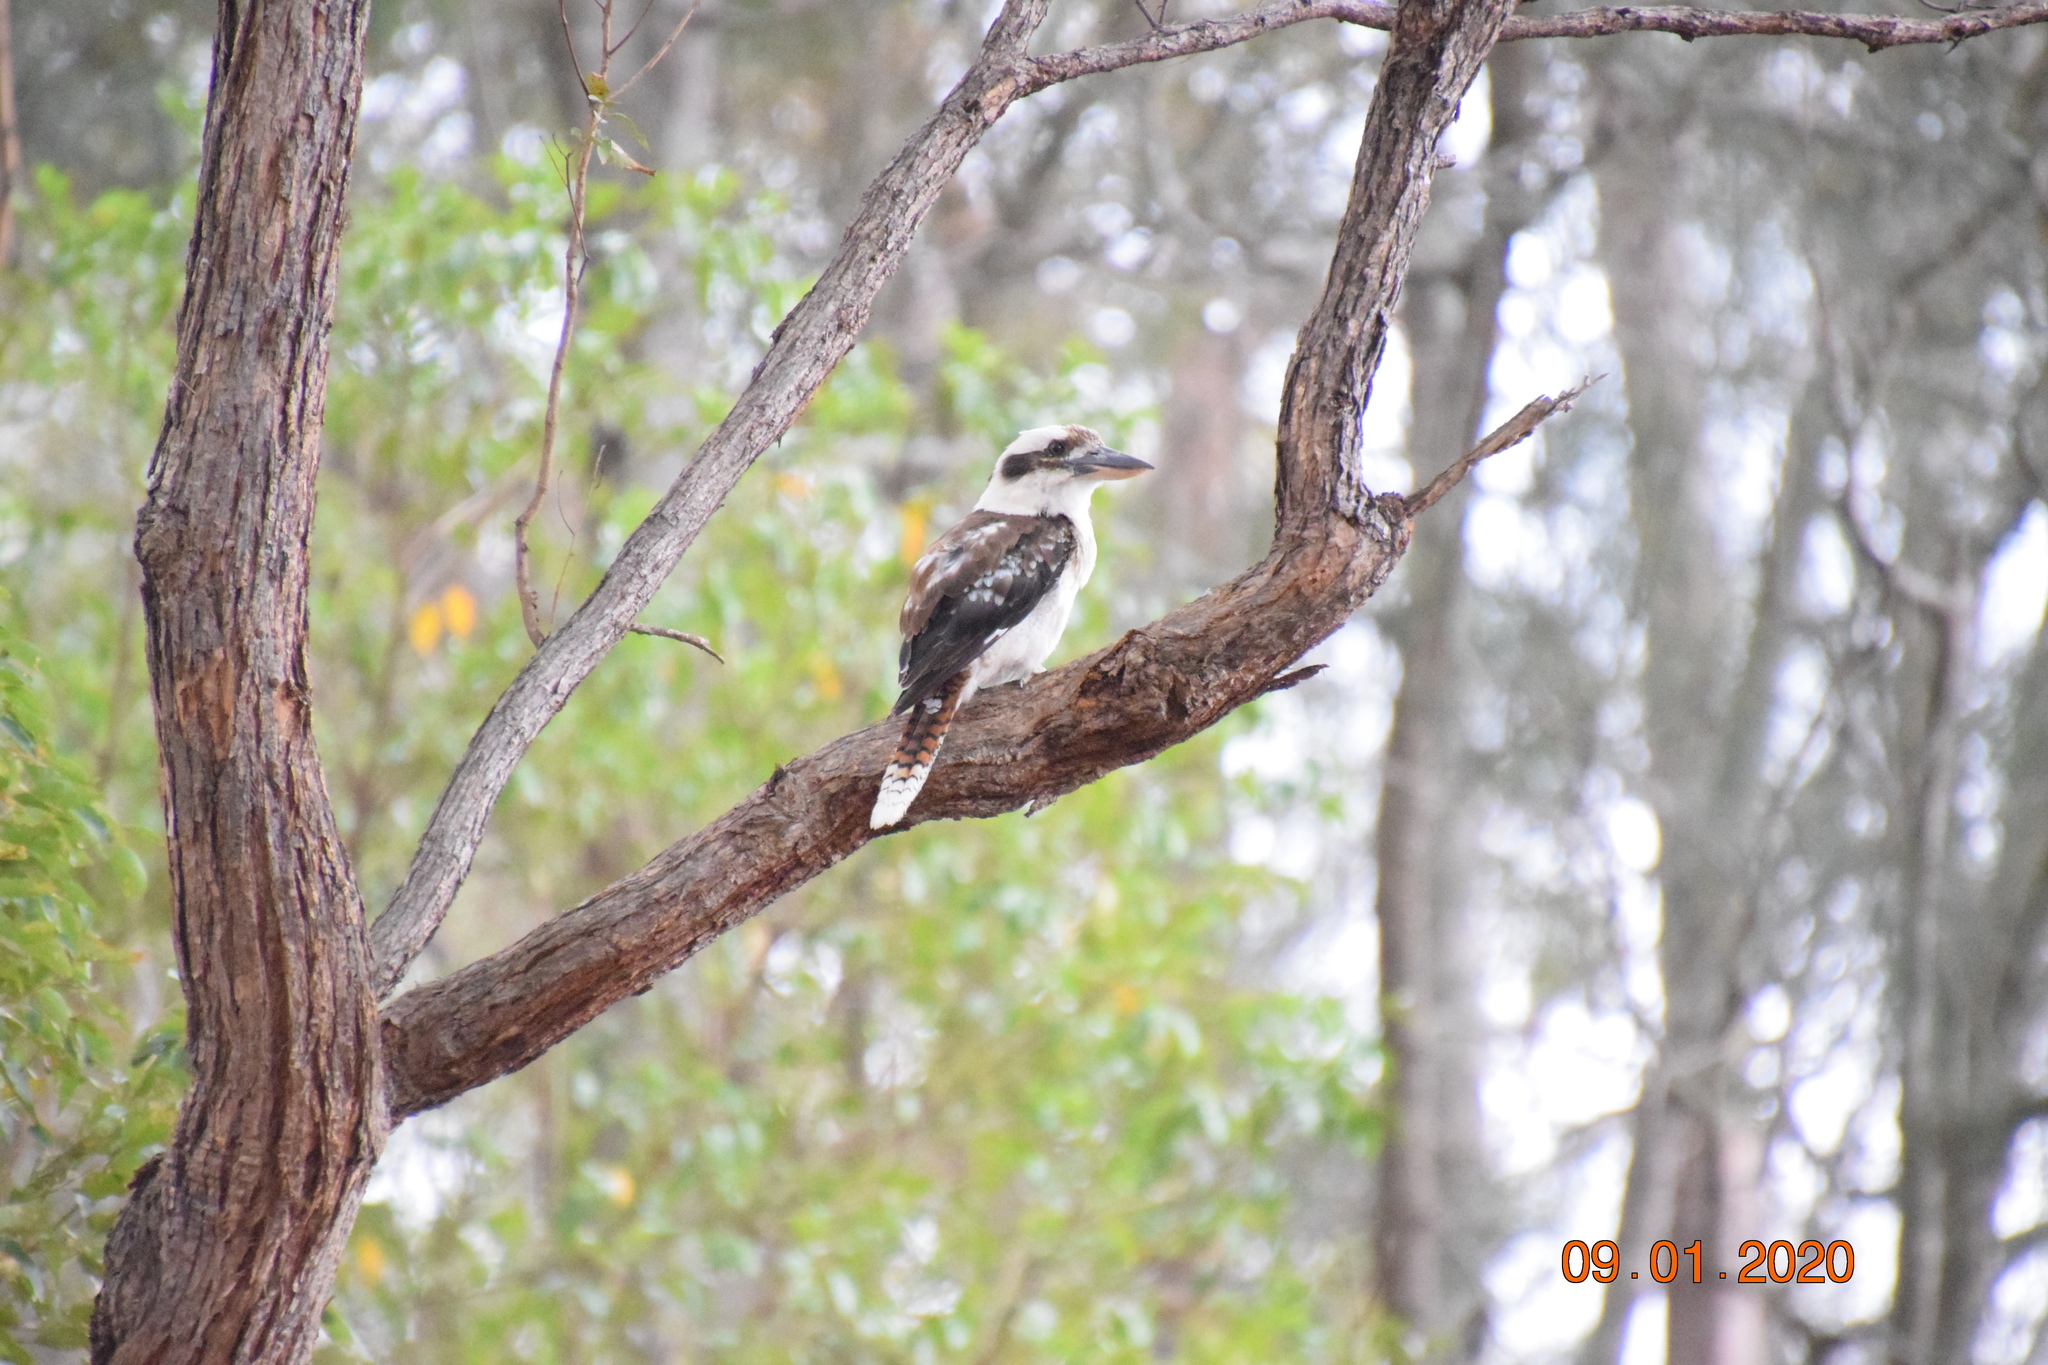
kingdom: Animalia
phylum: Chordata
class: Aves
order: Coraciiformes
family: Alcedinidae
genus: Dacelo
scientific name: Dacelo novaeguineae
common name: Laughing kookaburra
